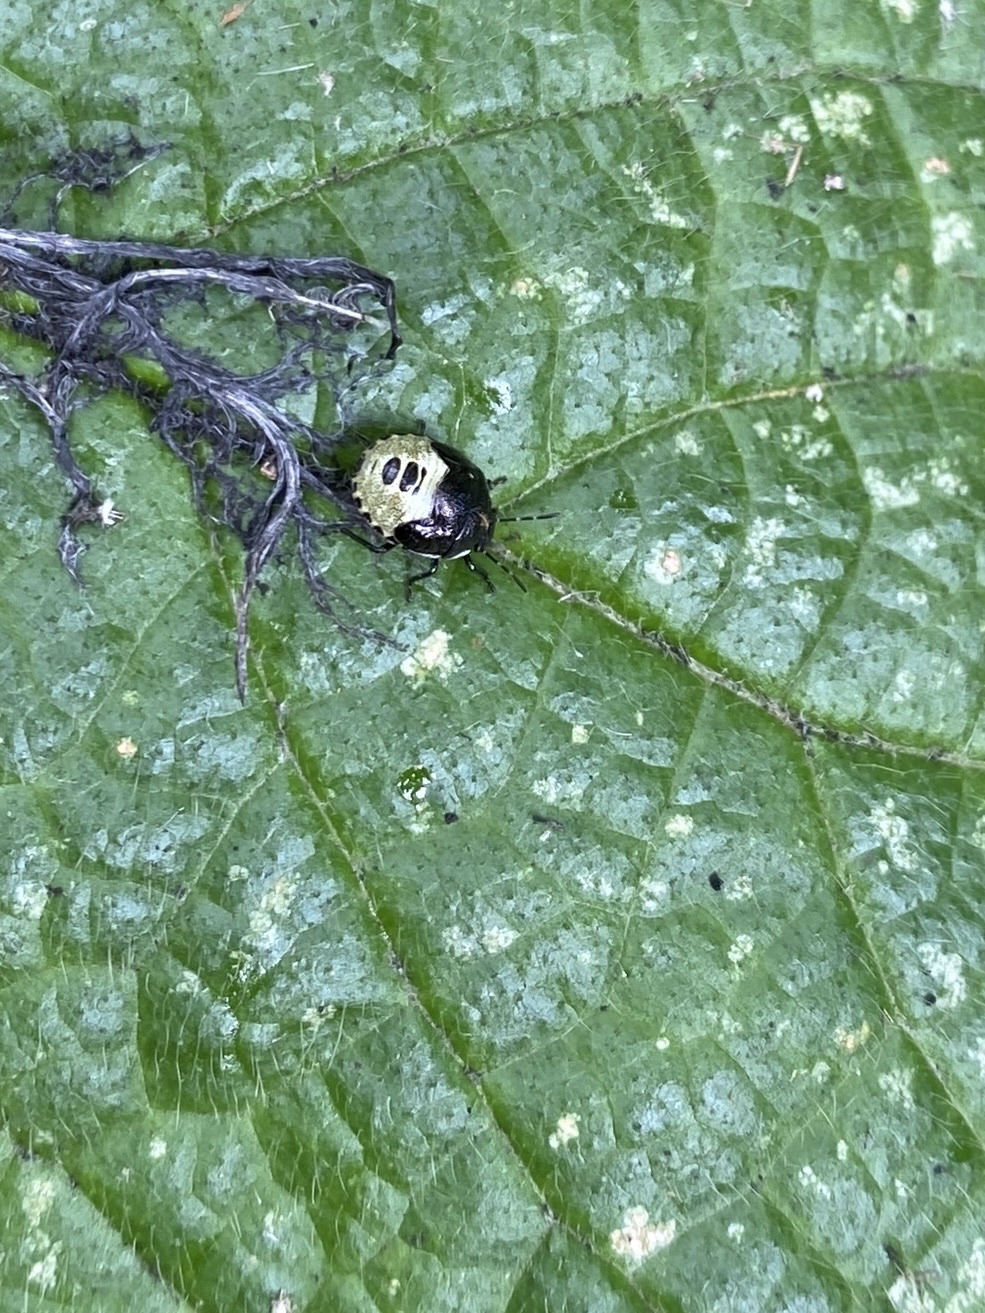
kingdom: Animalia
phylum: Arthropoda
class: Insecta
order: Hemiptera
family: Pentatomidae
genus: Eysarcoris
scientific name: Eysarcoris venustissimus
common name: Woundwort shieldbug
